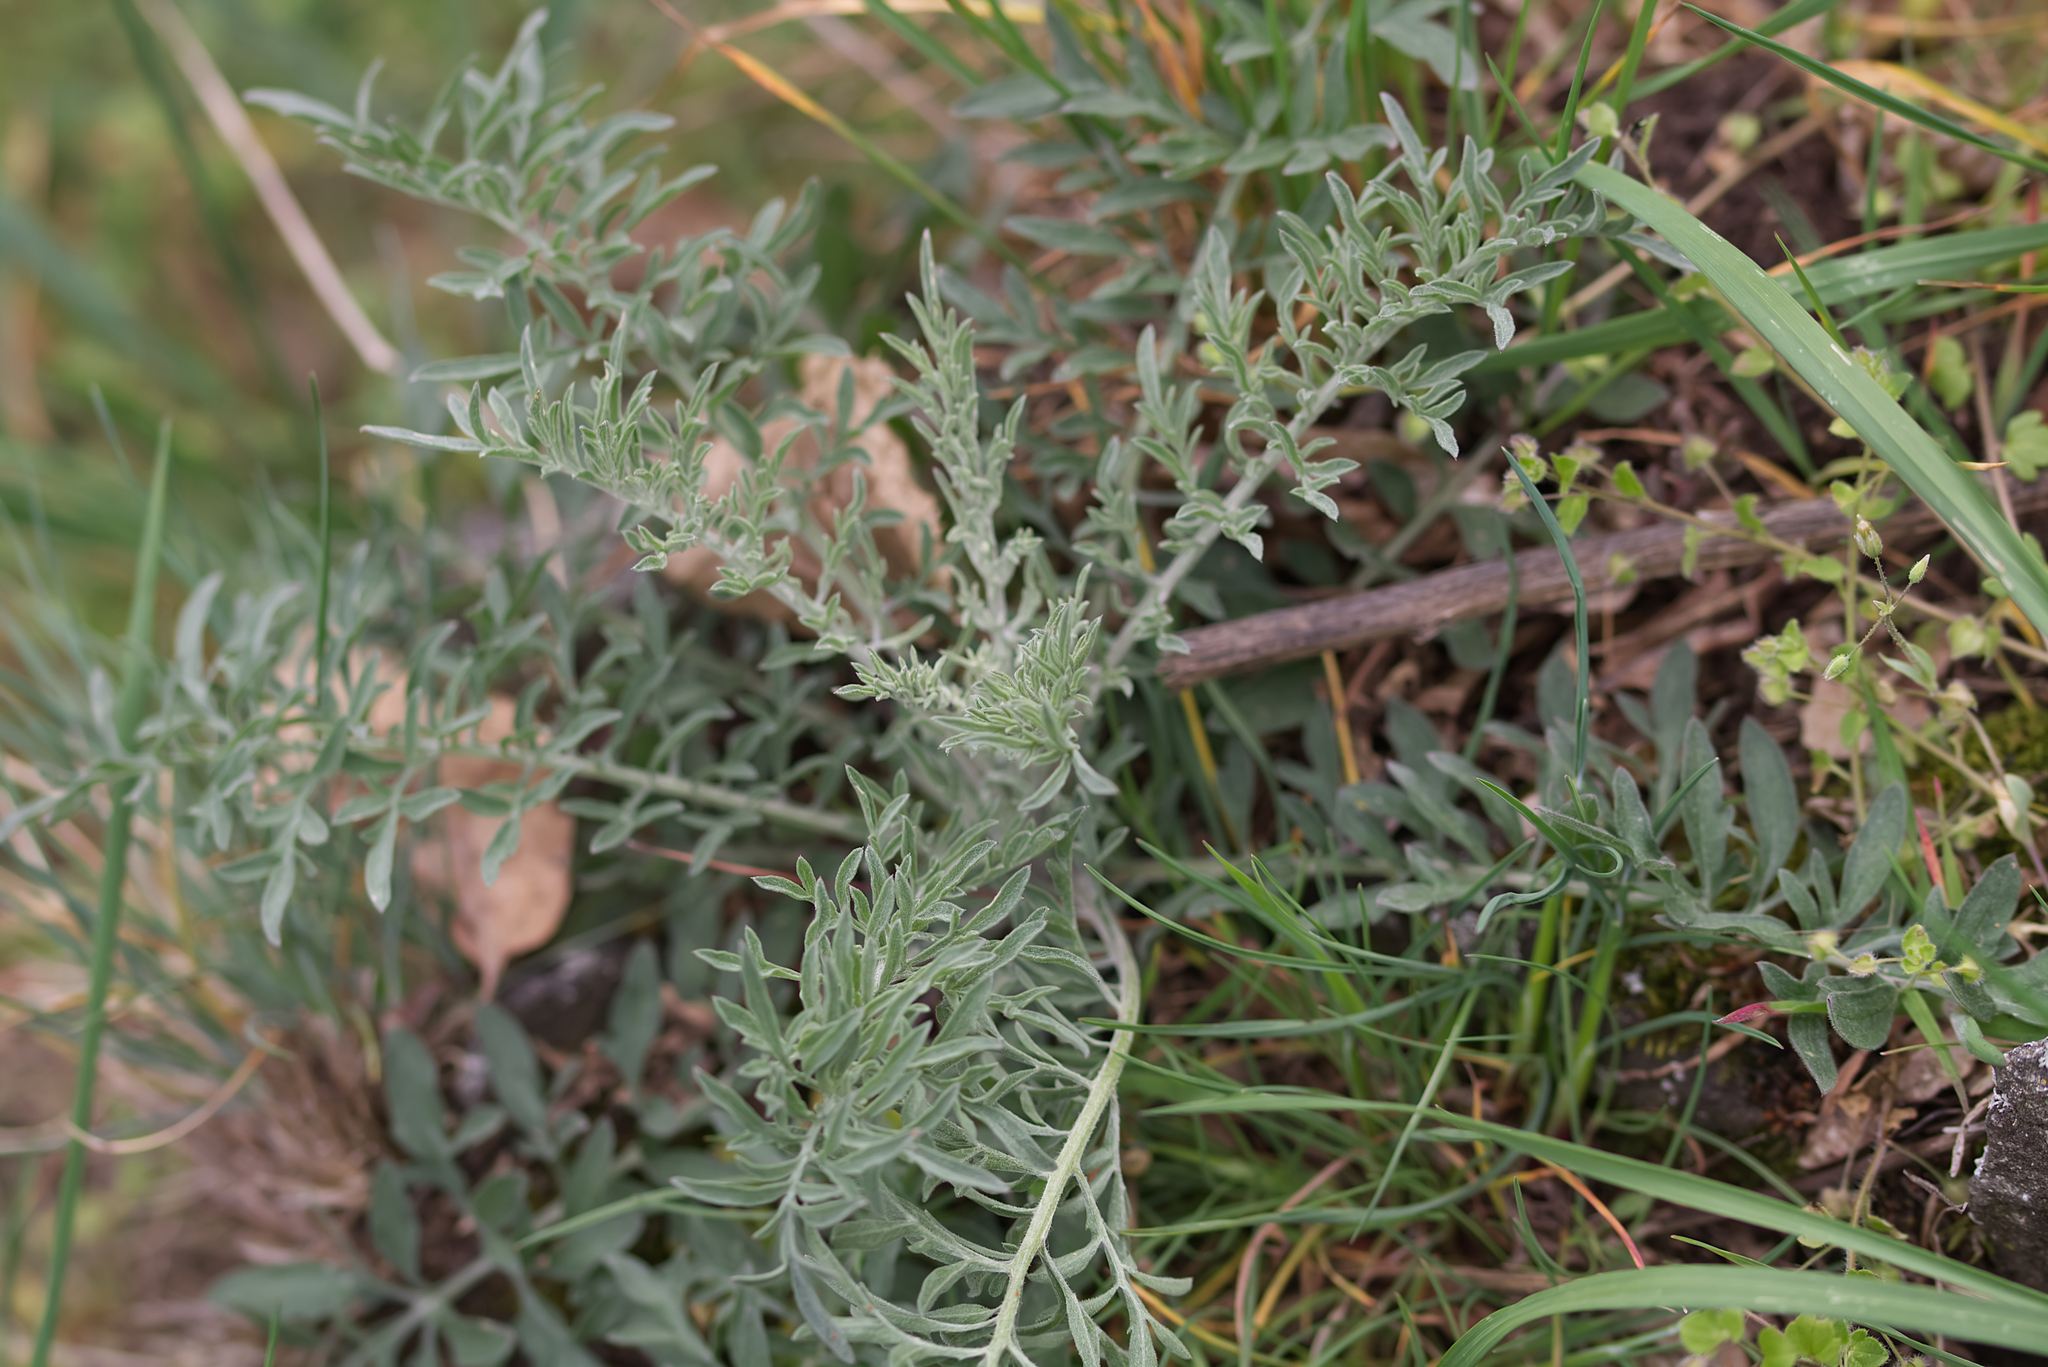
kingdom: Plantae
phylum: Tracheophyta
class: Magnoliopsida
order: Asterales
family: Asteraceae
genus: Centaurea
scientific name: Centaurea stoebe
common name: Spotted knapweed
